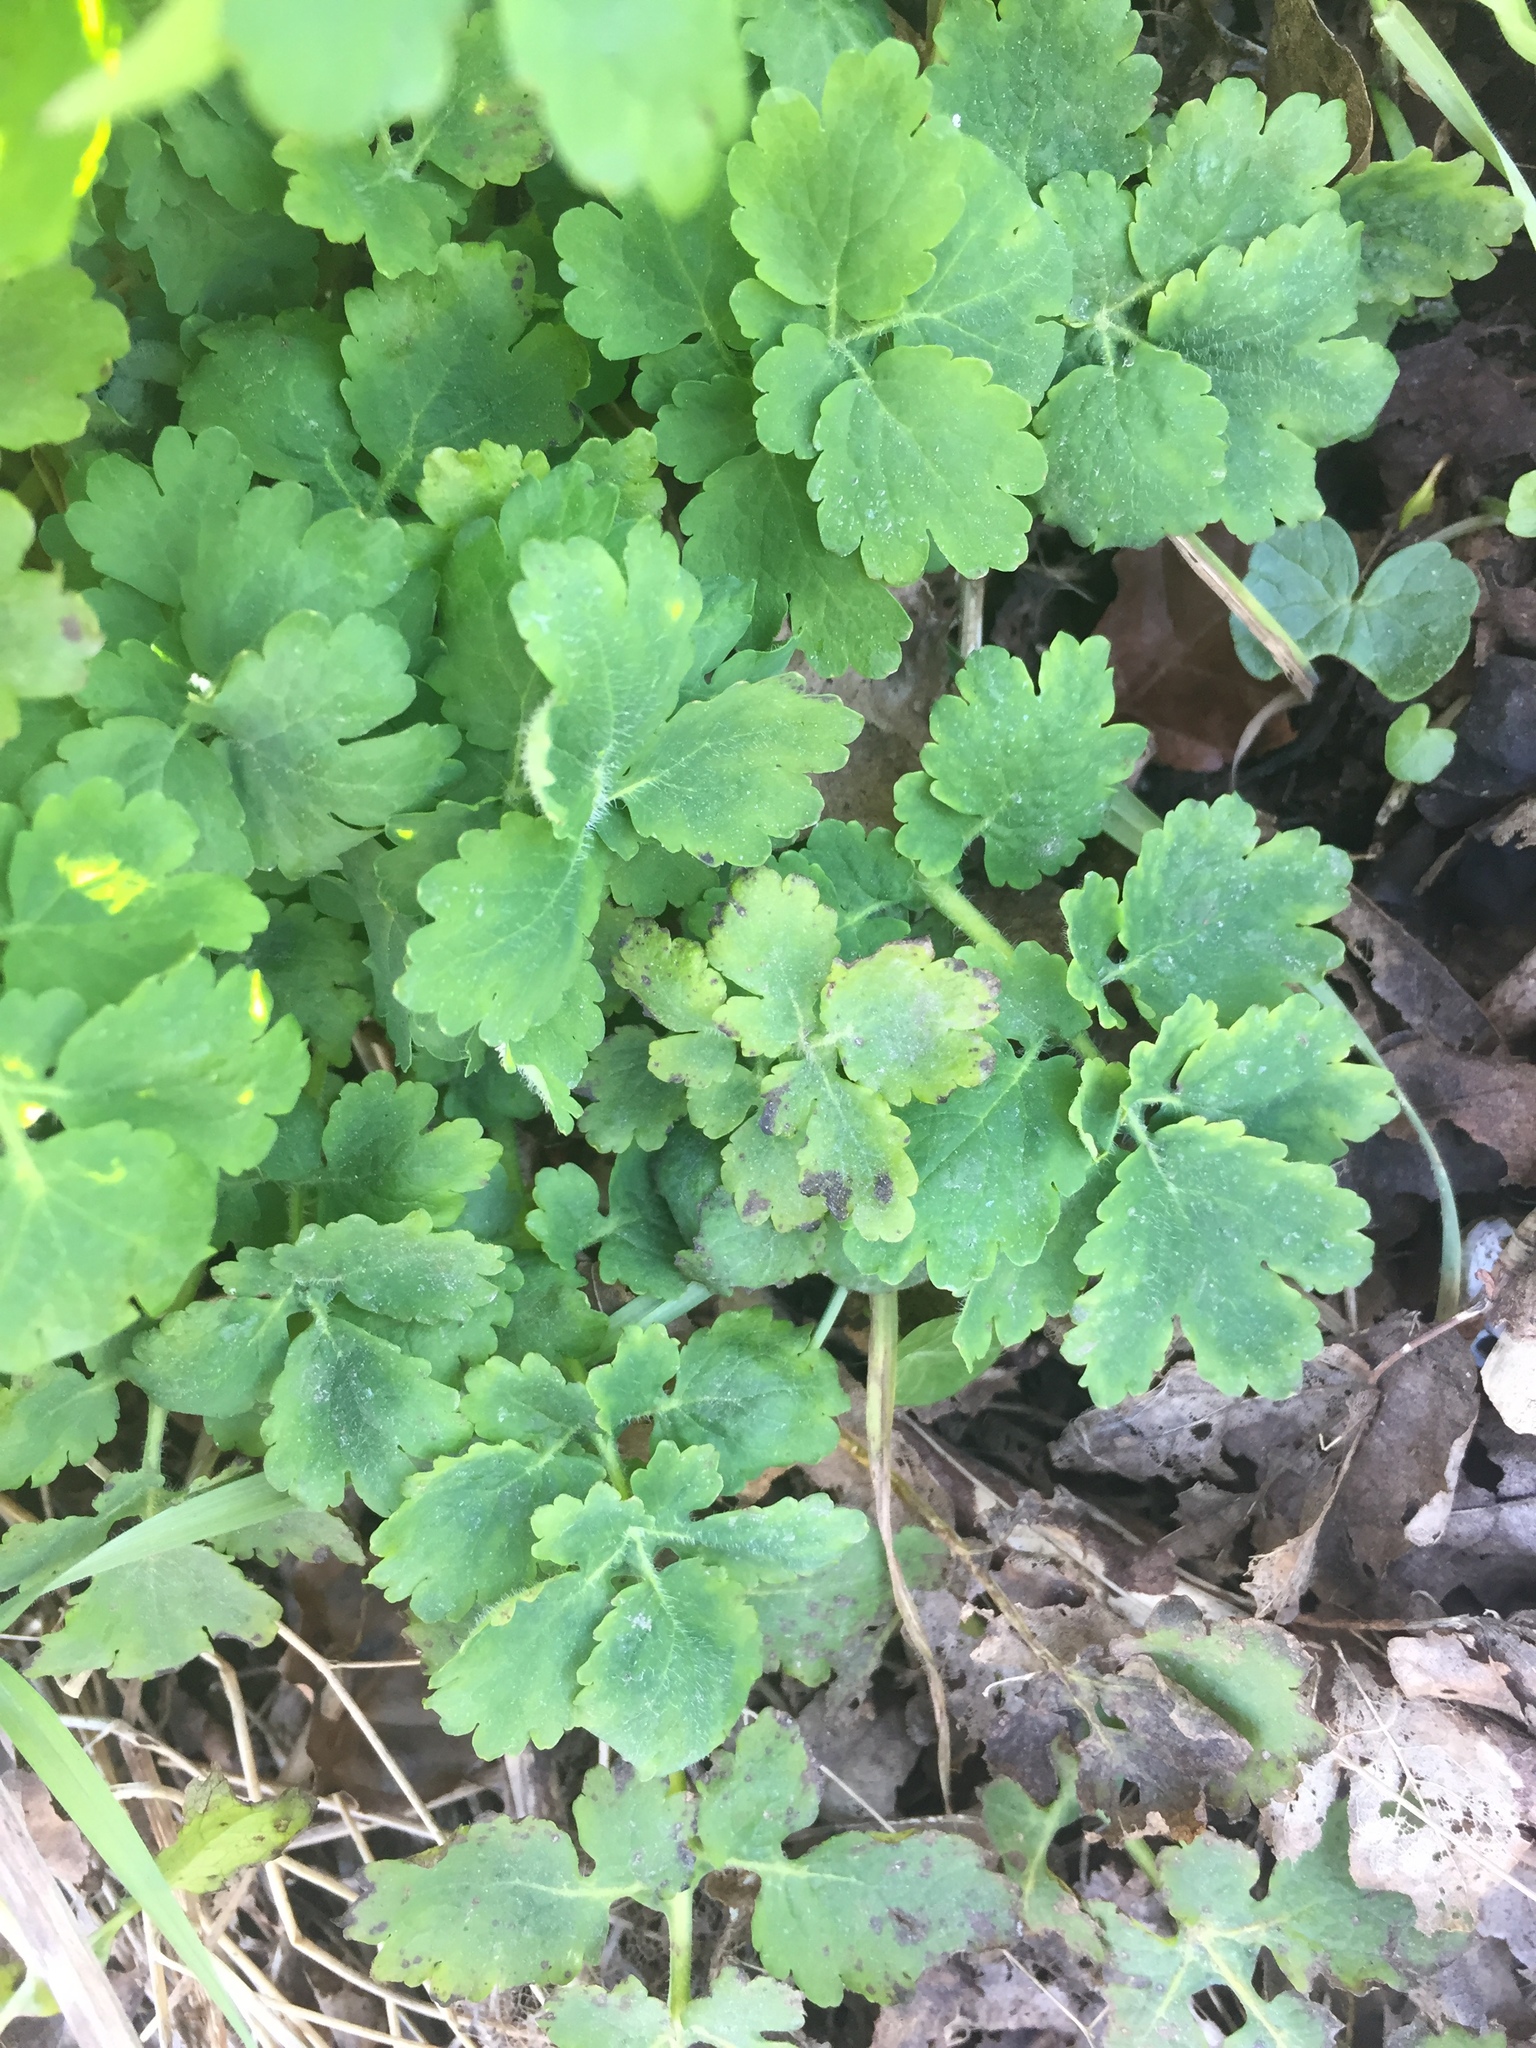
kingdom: Plantae
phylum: Tracheophyta
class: Magnoliopsida
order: Ranunculales
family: Papaveraceae
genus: Chelidonium
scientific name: Chelidonium majus
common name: Greater celandine
